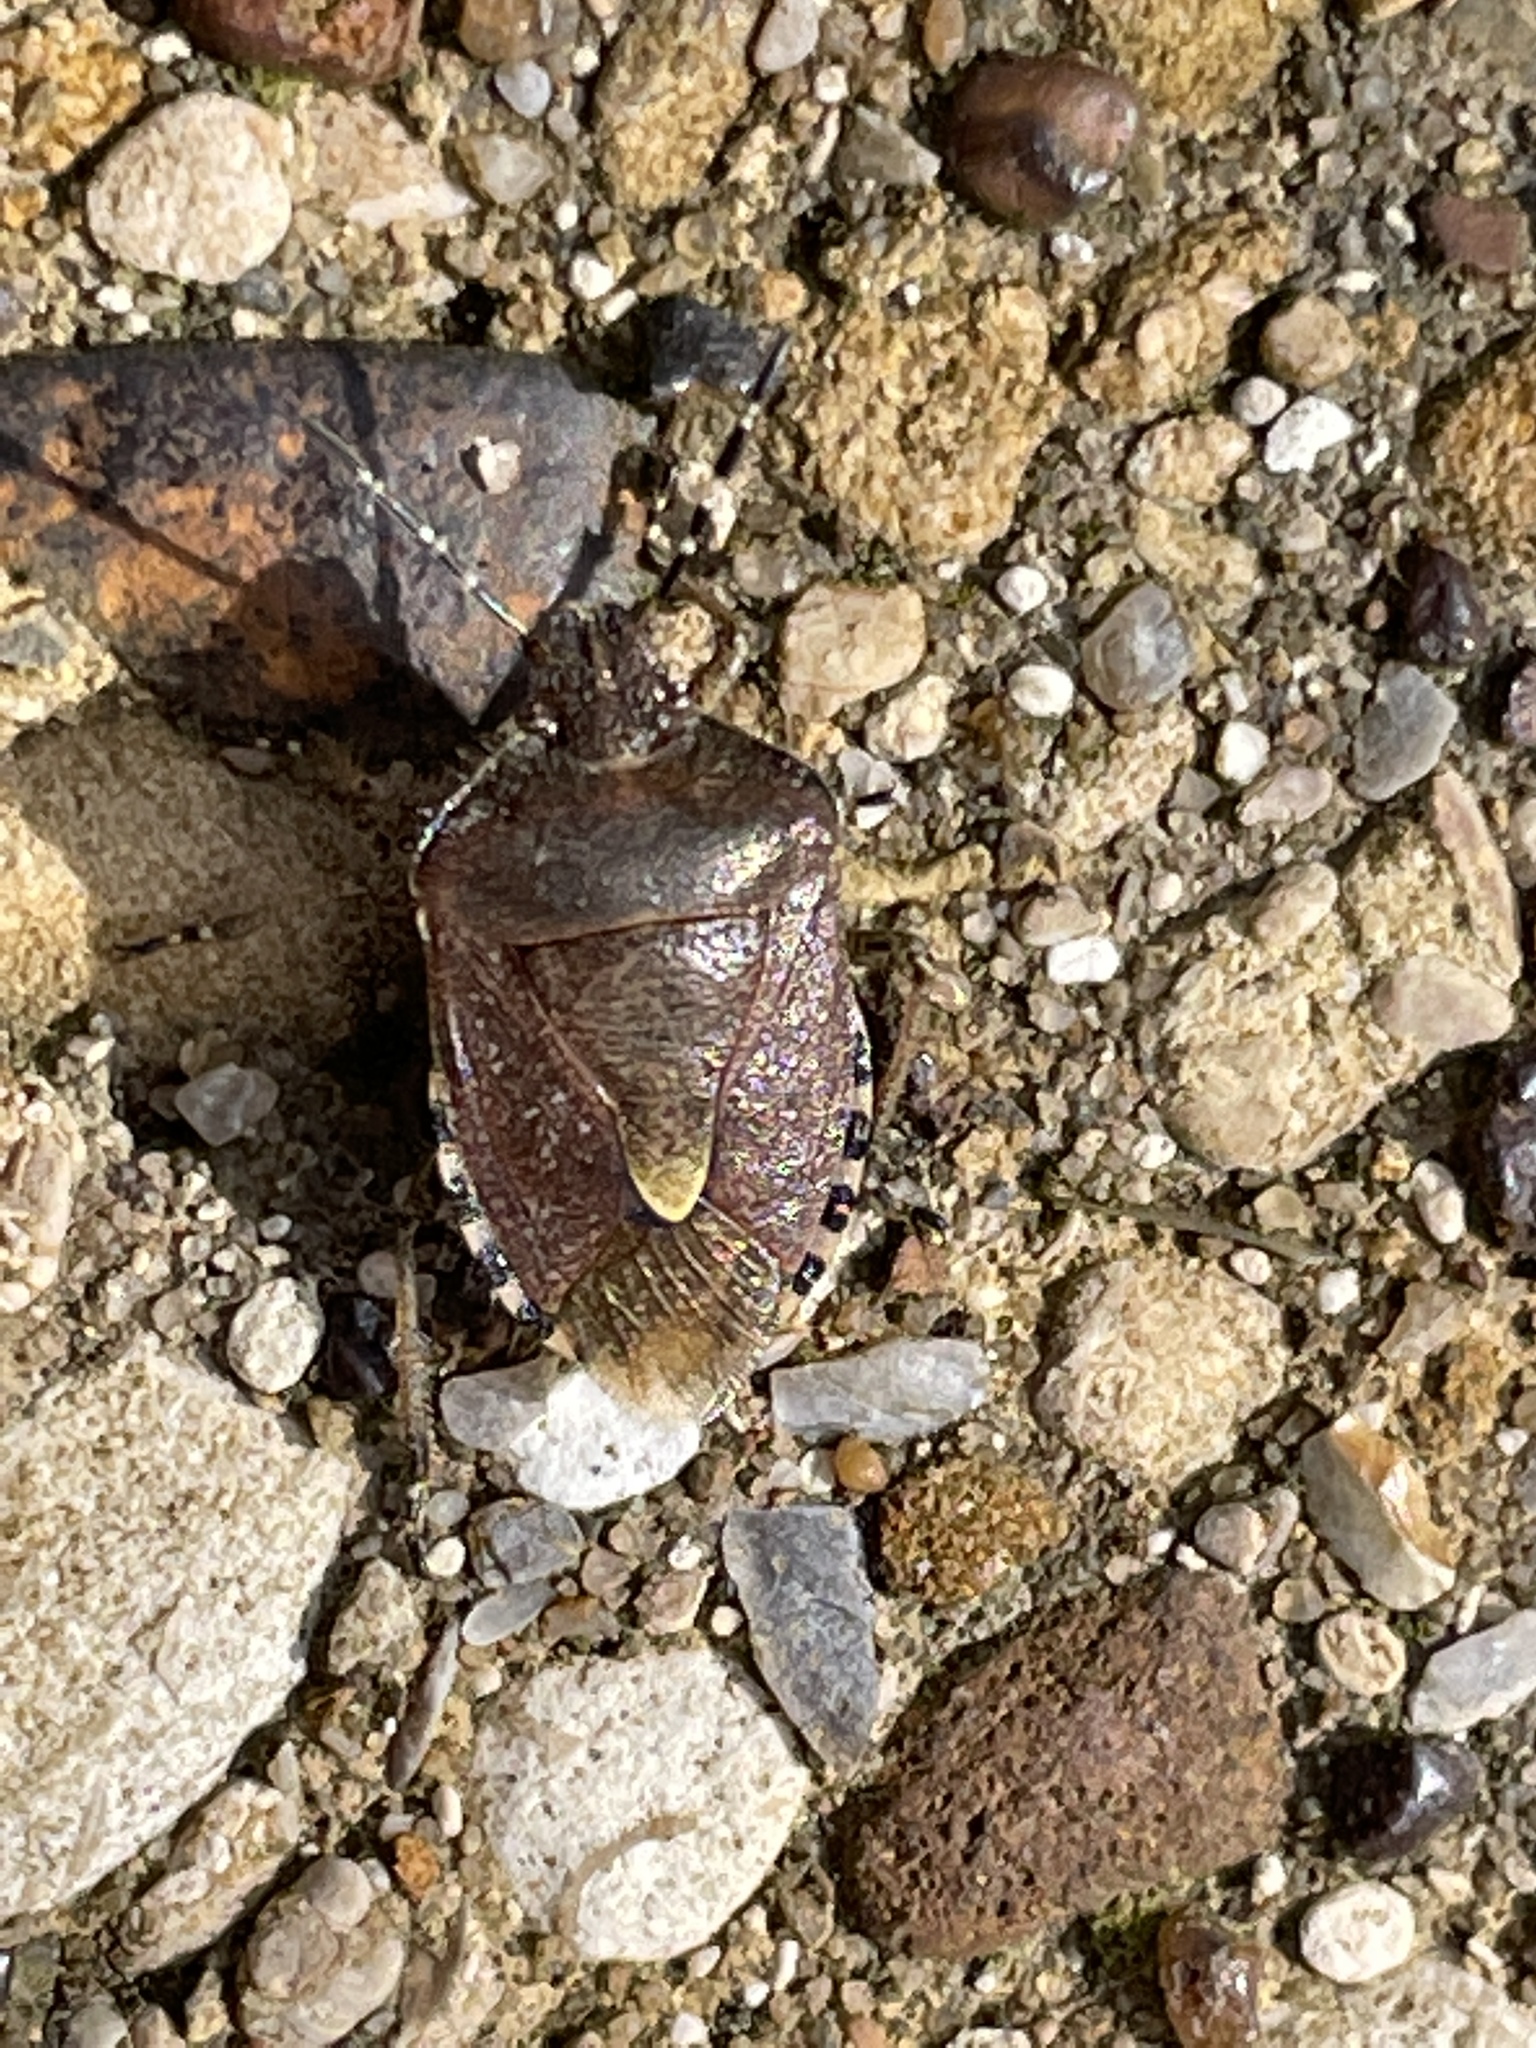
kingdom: Animalia
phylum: Arthropoda
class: Insecta
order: Hemiptera
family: Pentatomidae
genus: Dolycoris
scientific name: Dolycoris baccarum
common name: Sloe bug
